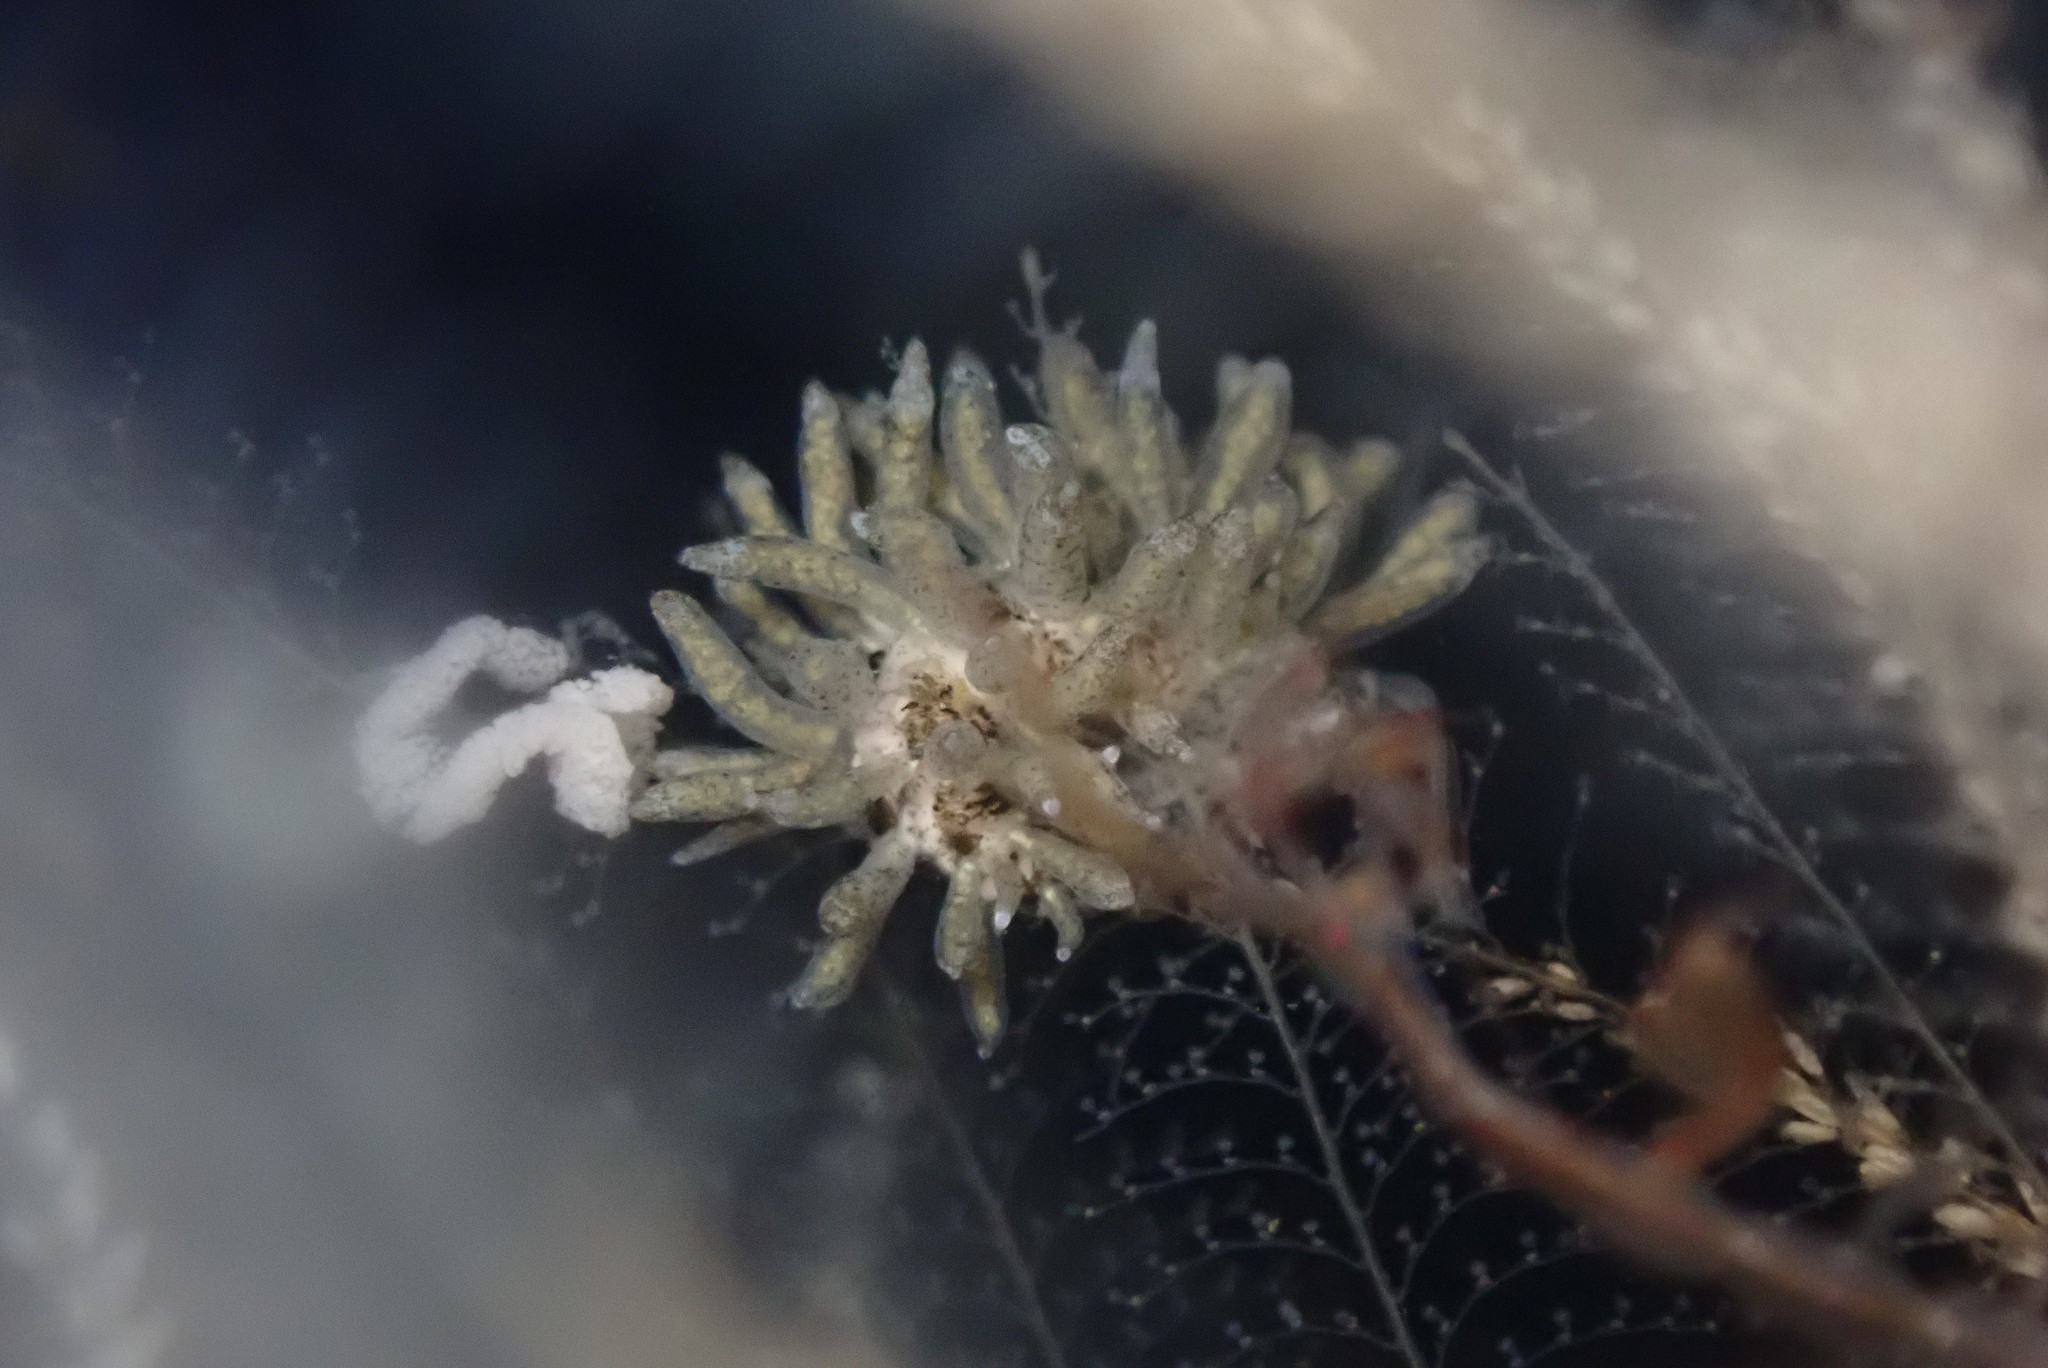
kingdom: Animalia
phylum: Mollusca
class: Gastropoda
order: Nudibranchia
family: Eubranchidae
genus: Eubranchus
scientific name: Eubranchus rustyus
